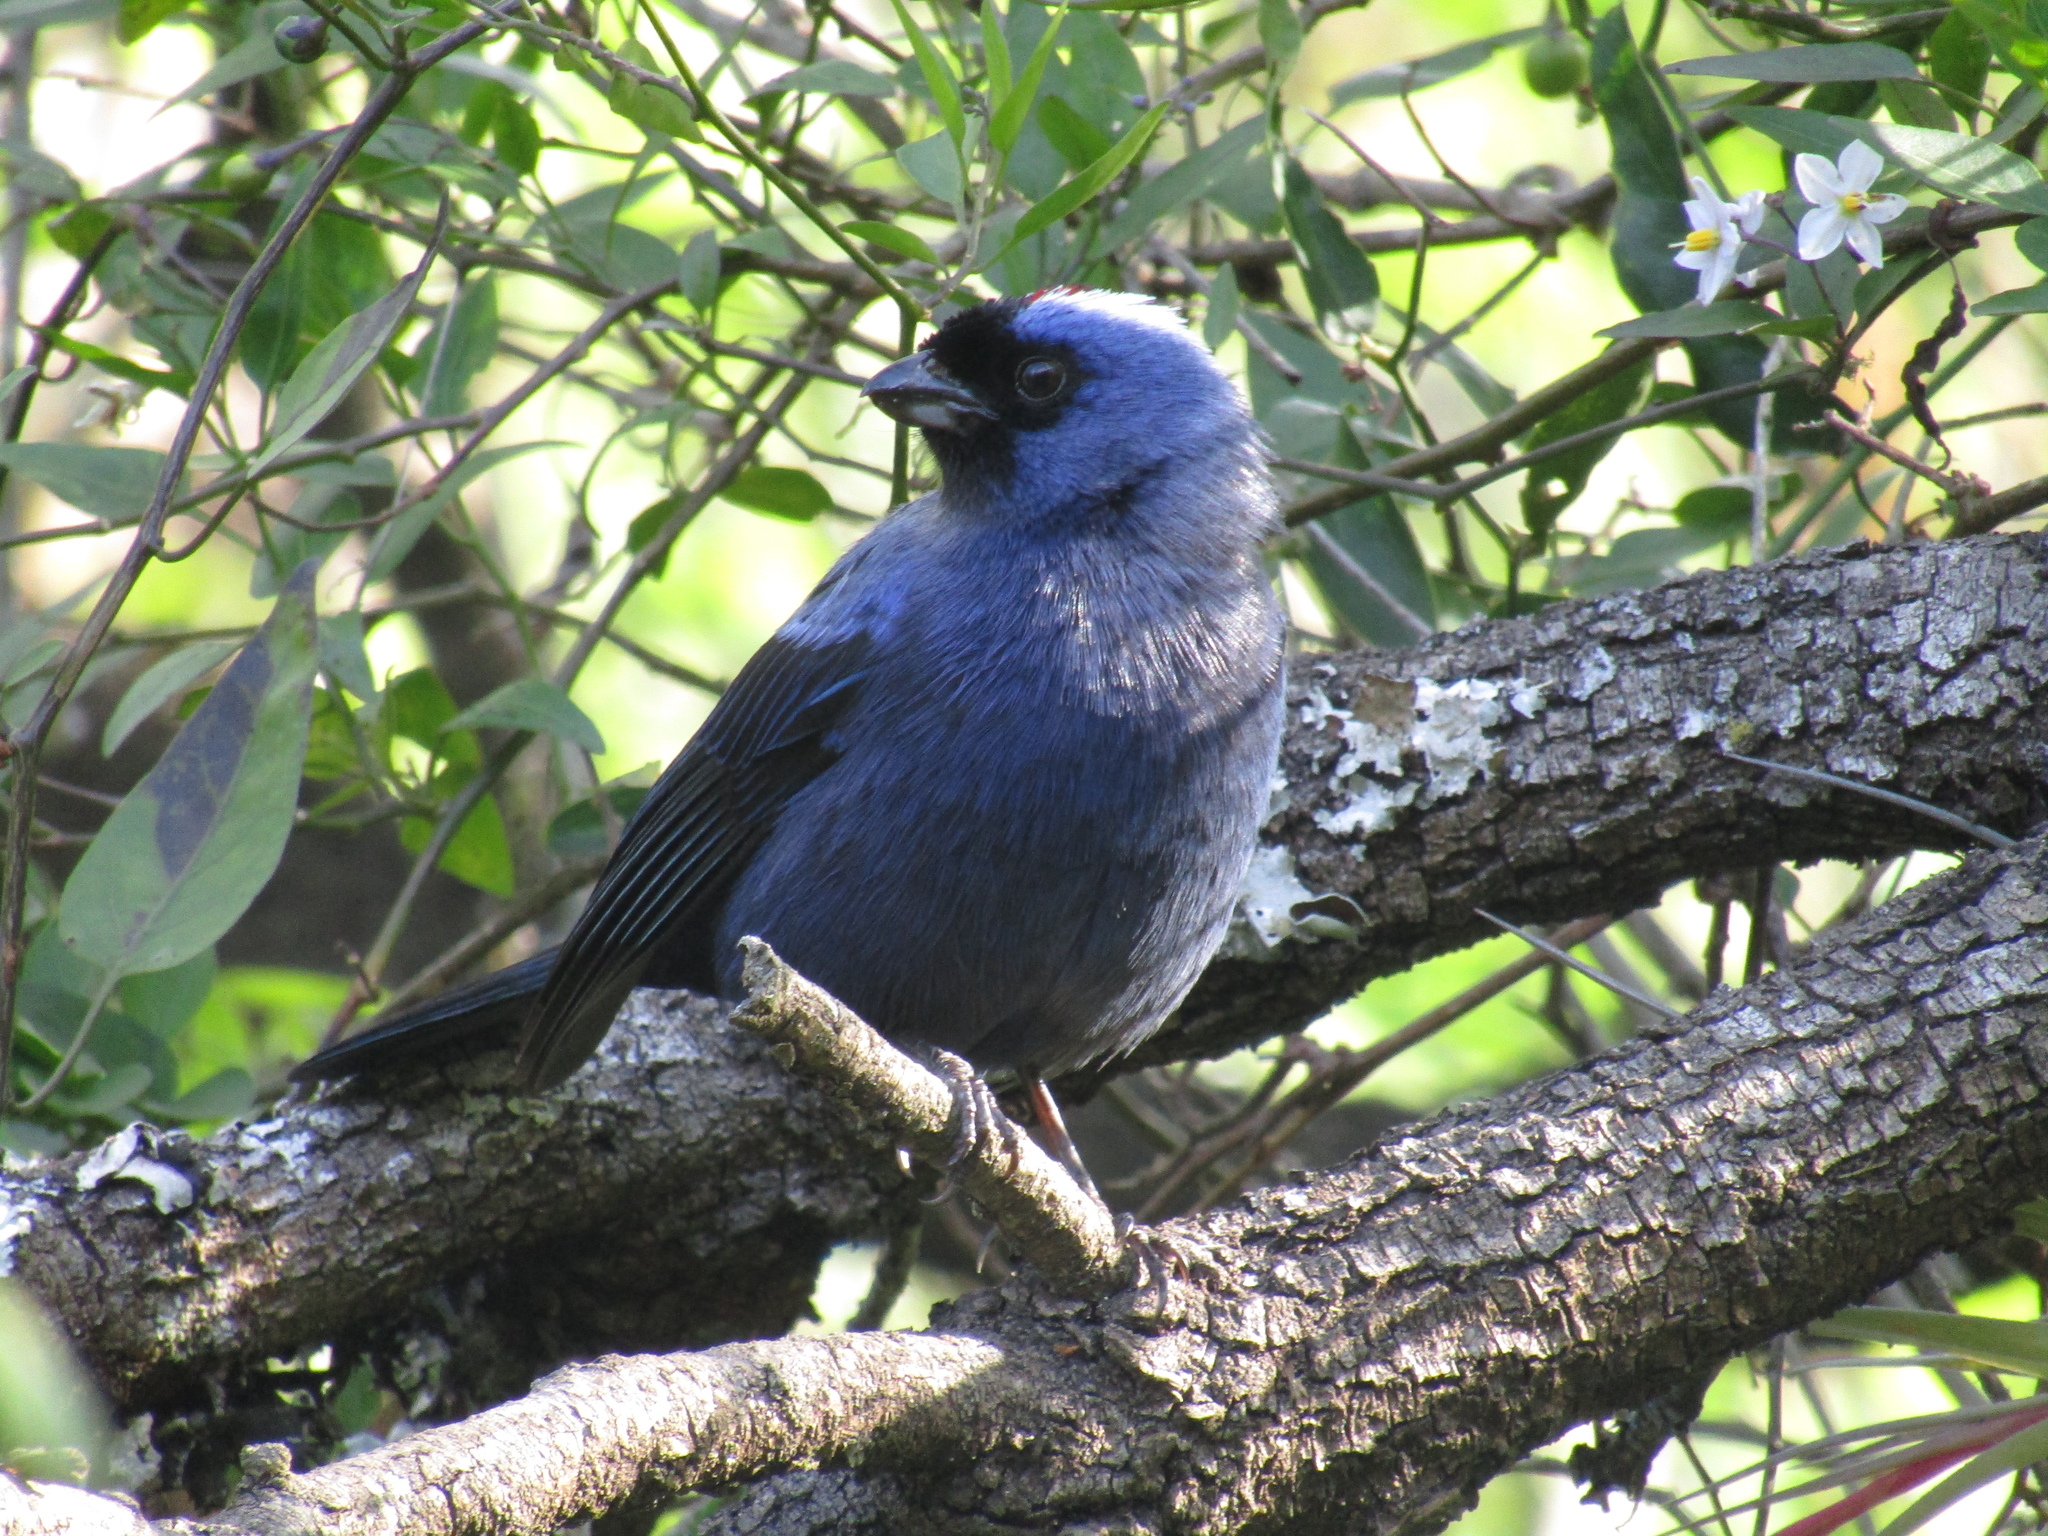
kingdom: Animalia
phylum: Chordata
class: Aves
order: Passeriformes
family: Thraupidae
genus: Stephanophorus
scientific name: Stephanophorus diadematus
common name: Diademed tanager
